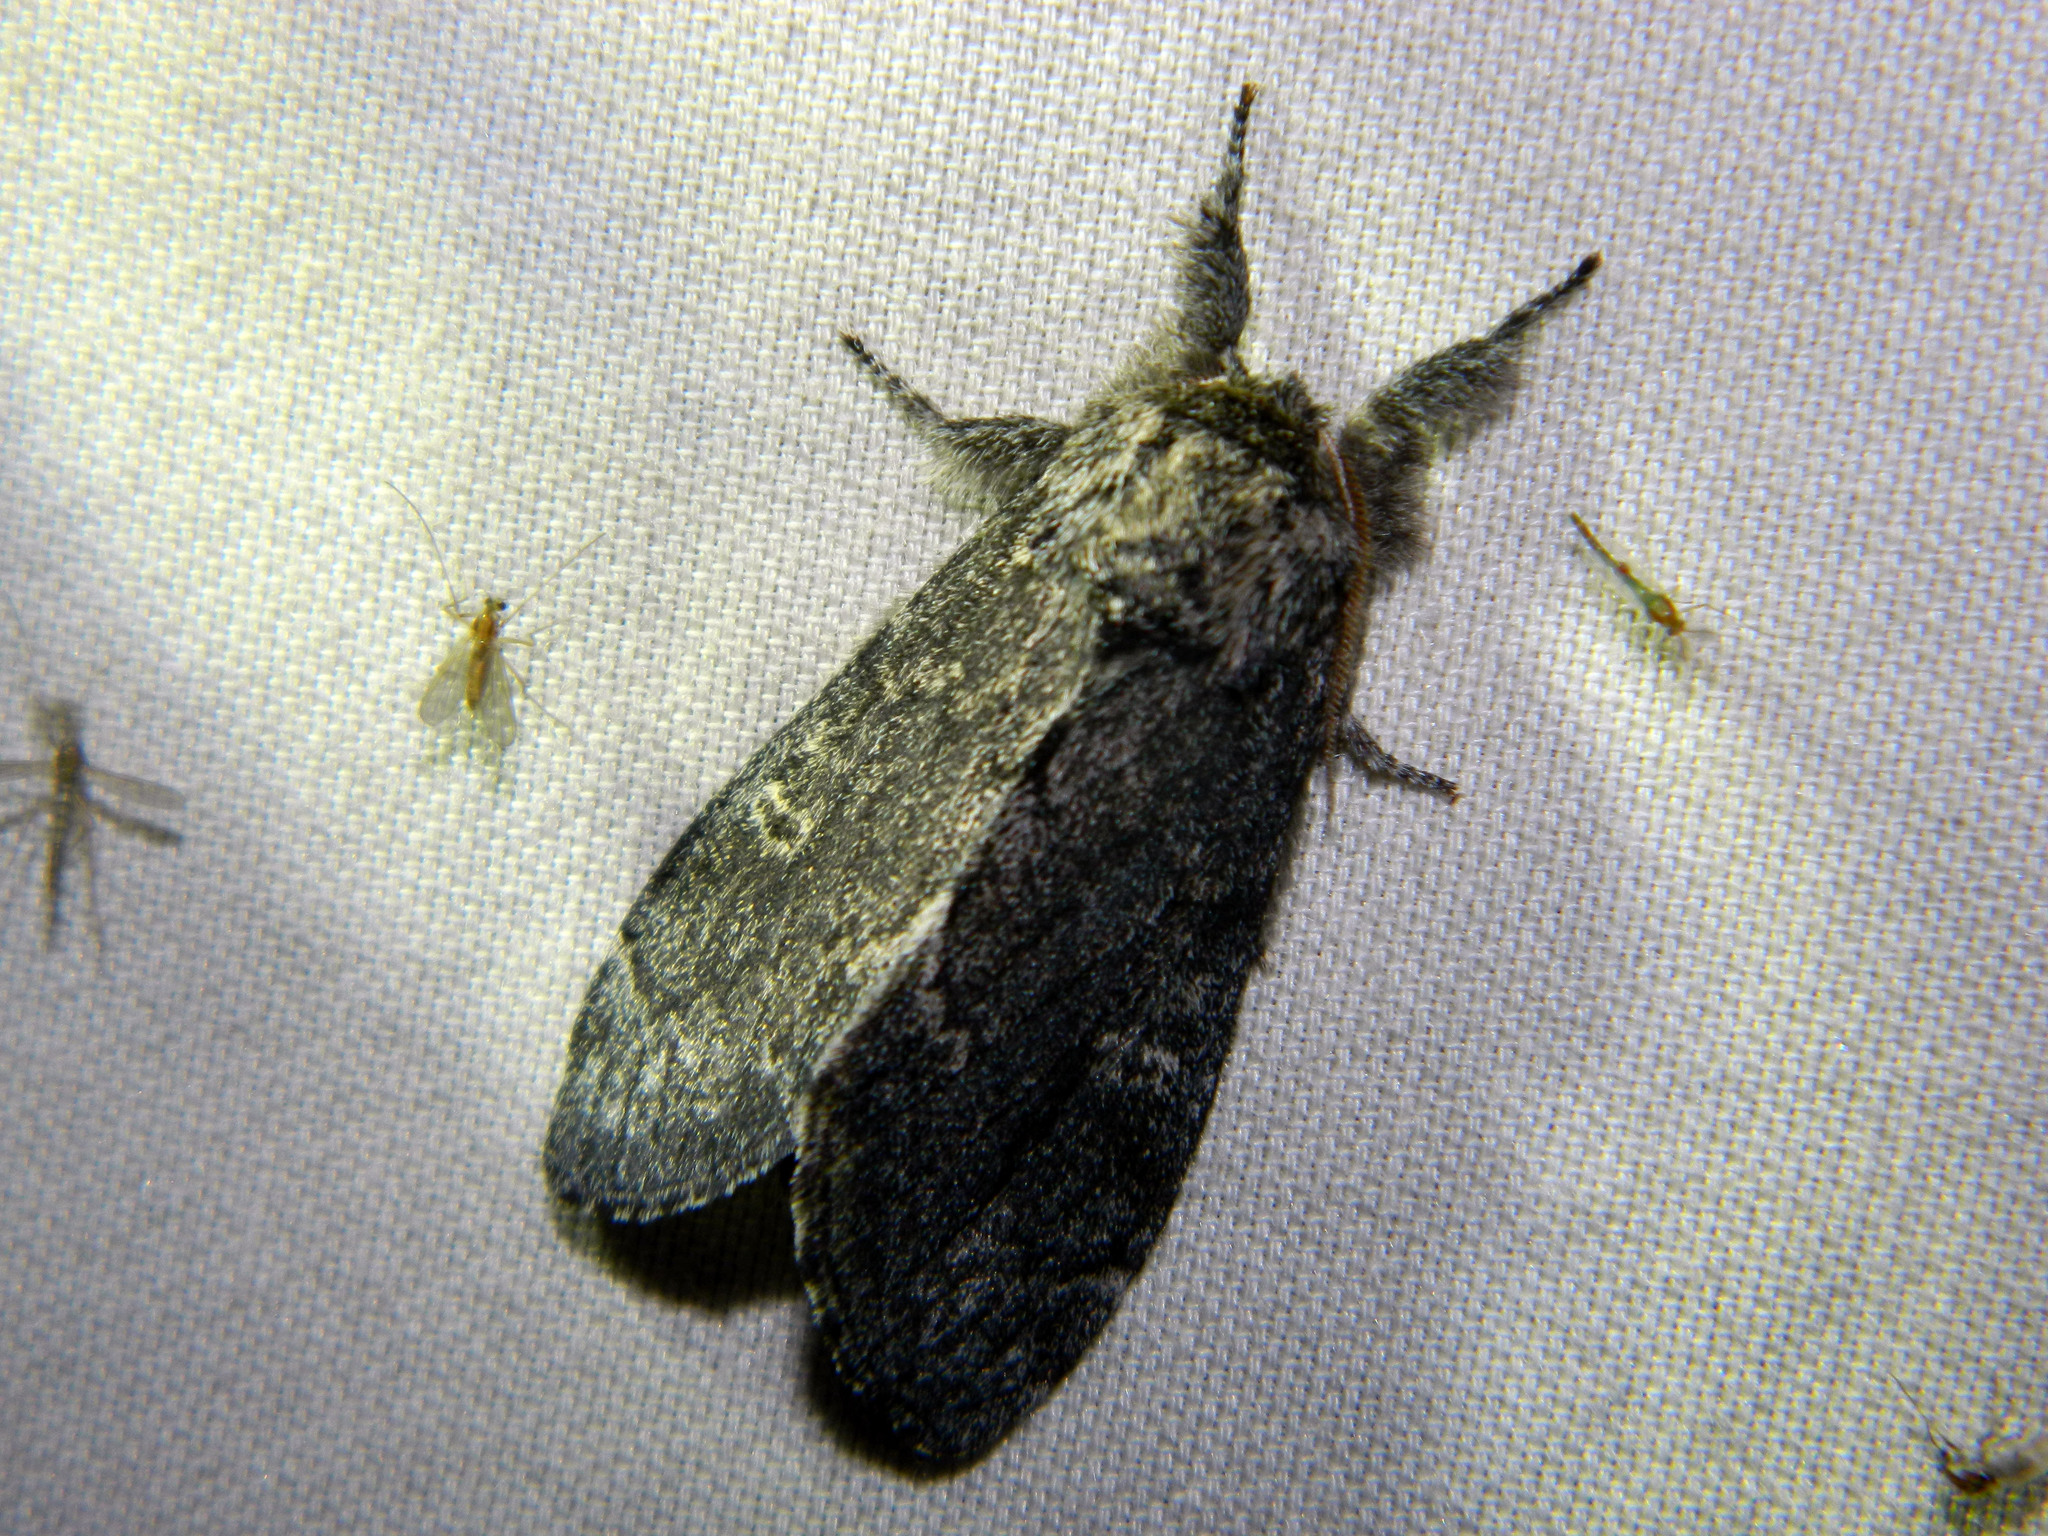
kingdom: Animalia
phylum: Arthropoda
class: Insecta
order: Lepidoptera
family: Notodontidae
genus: Notodonta
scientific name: Notodonta torva
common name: Large dark prominent
